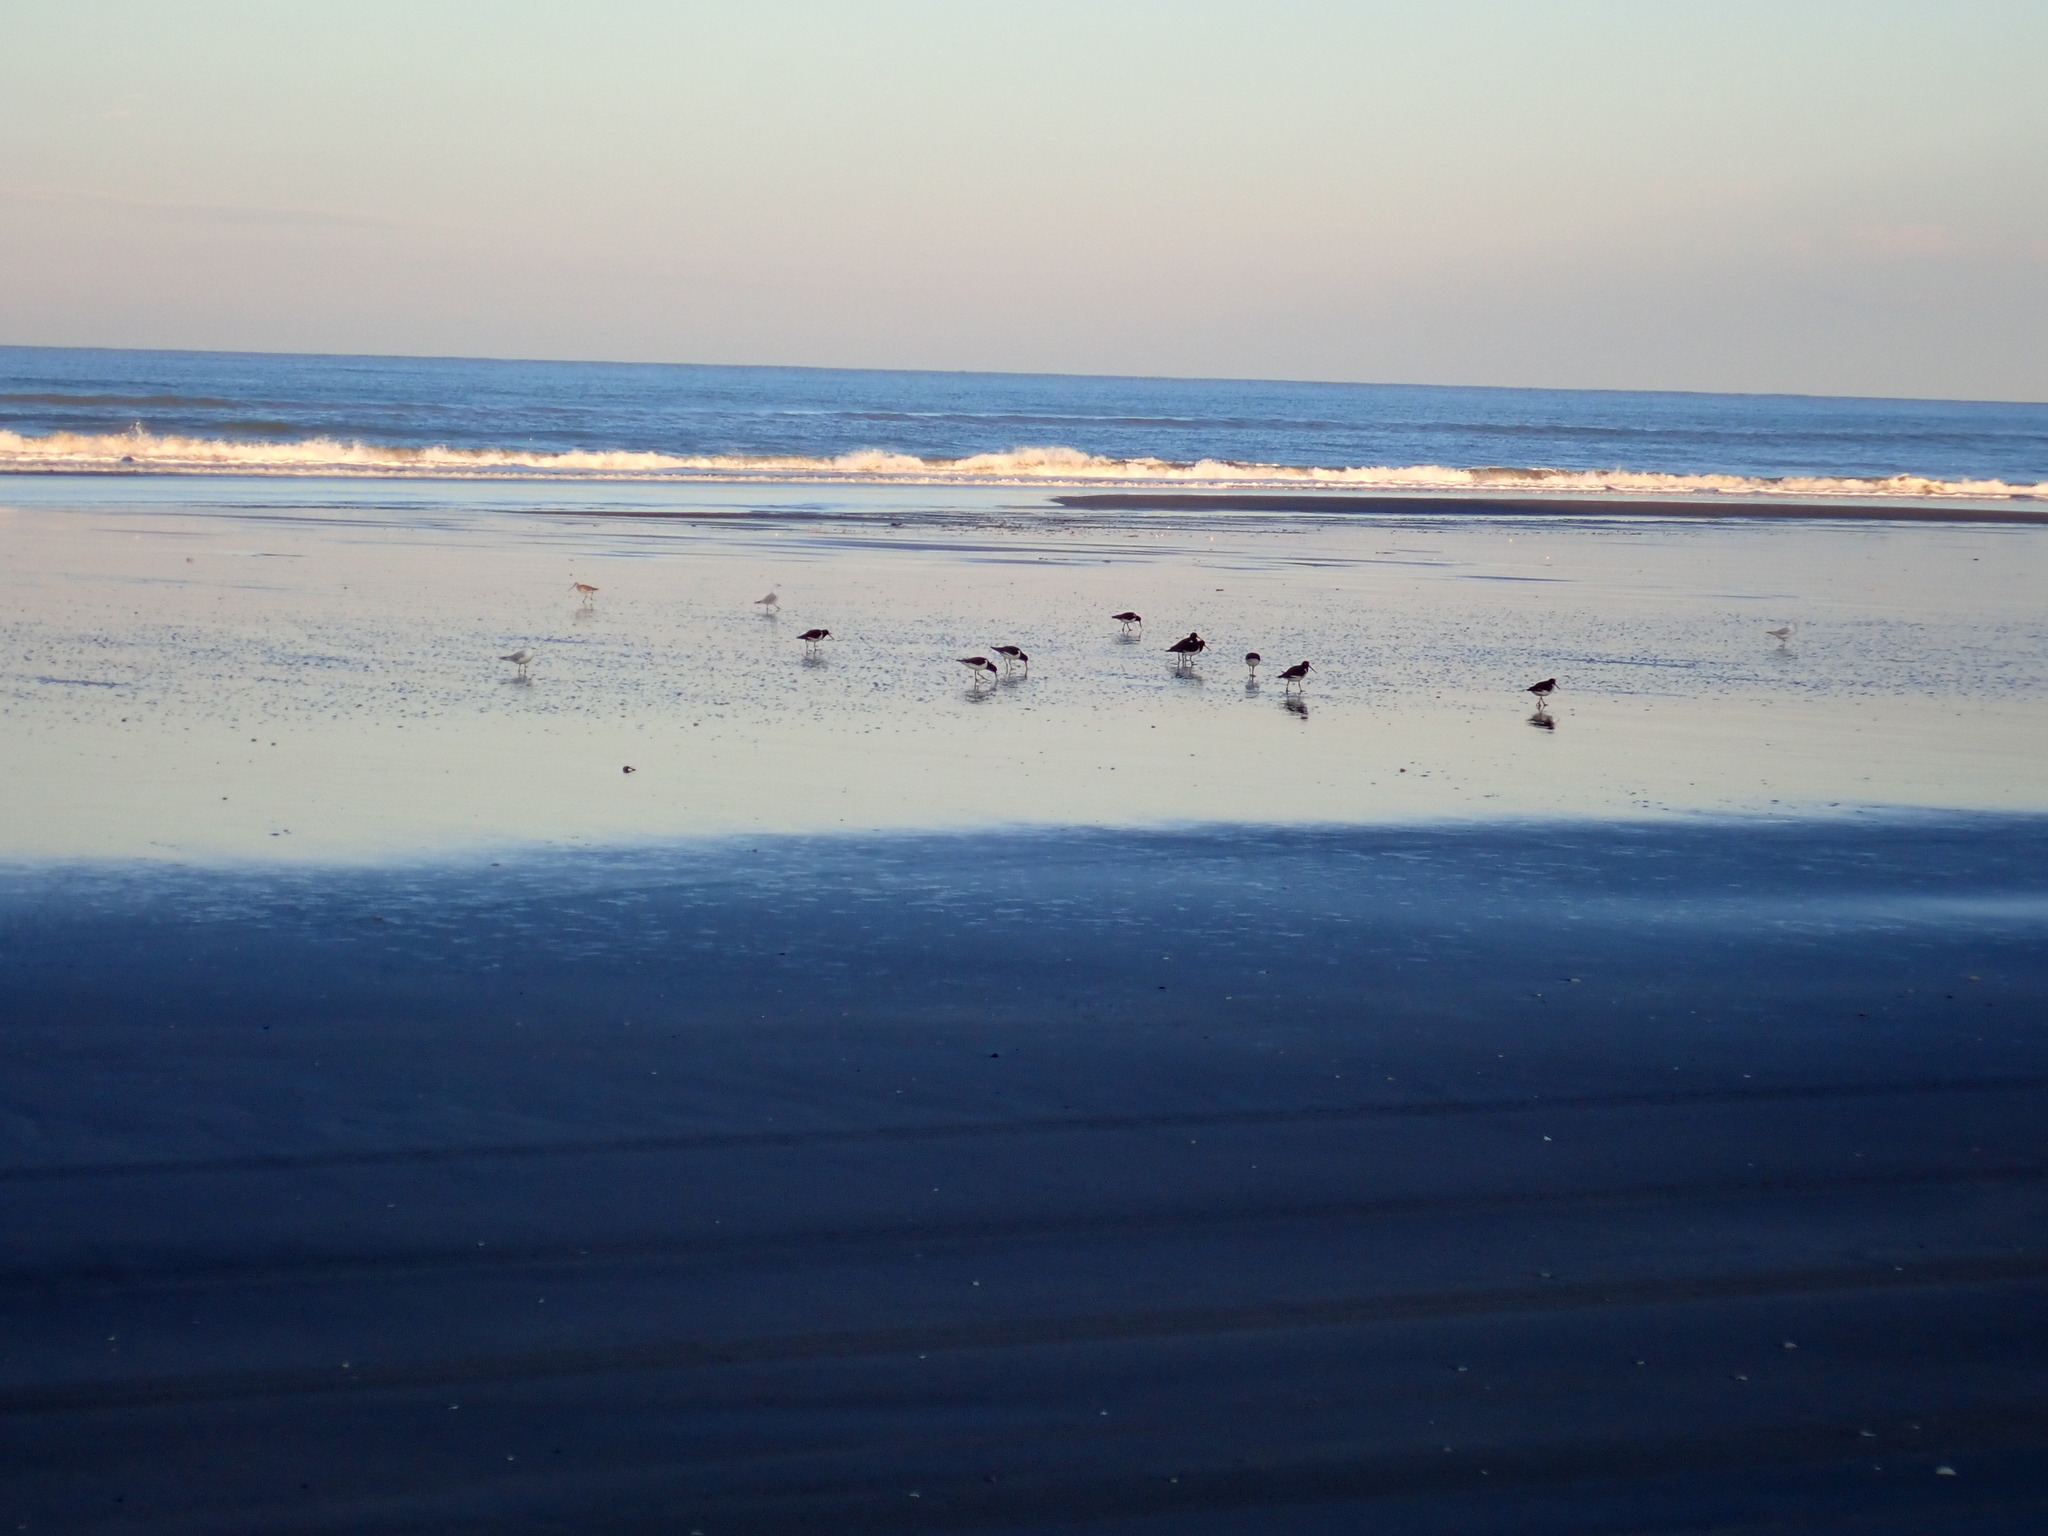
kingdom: Animalia
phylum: Chordata
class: Aves
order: Charadriiformes
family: Scolopacidae
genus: Limosa
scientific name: Limosa lapponica
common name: Bar-tailed godwit
